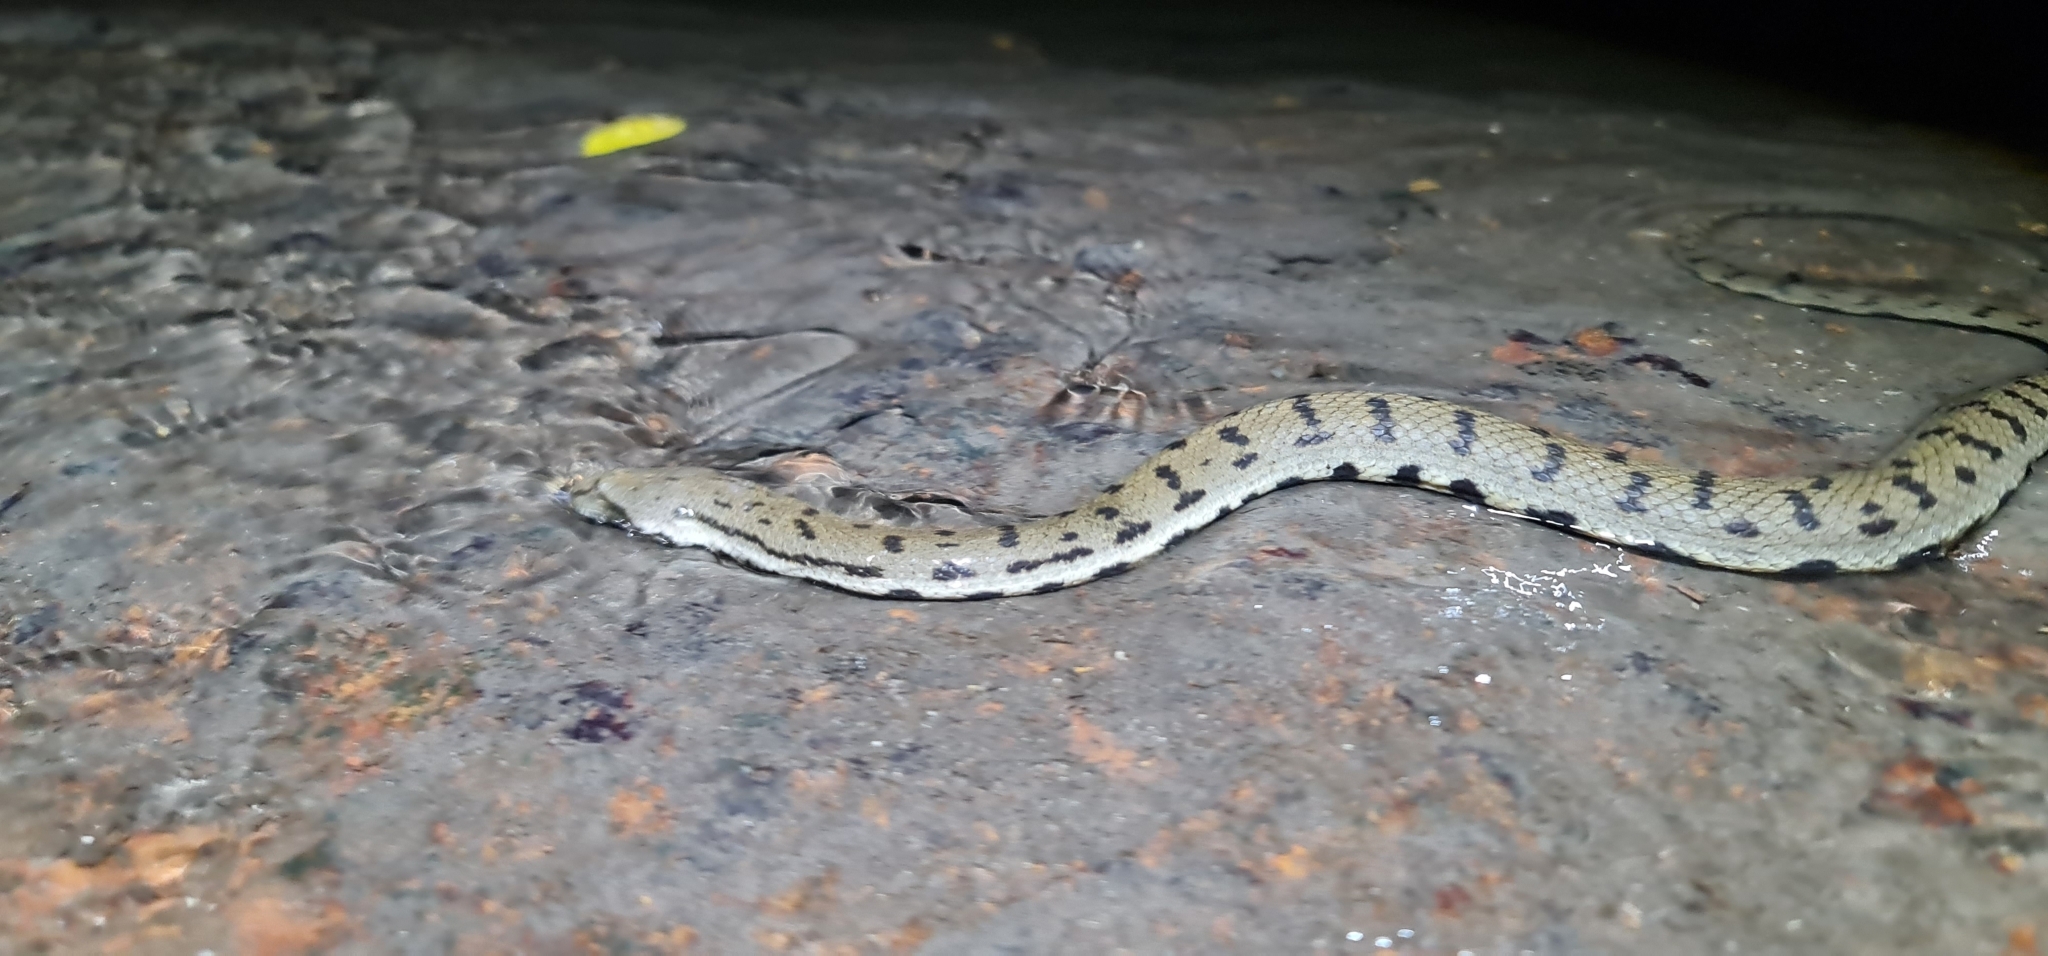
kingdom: Animalia
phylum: Chordata
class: Squamata
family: Homalopsidae
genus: Cerberus
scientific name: Cerberus australis
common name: Australian bockadam
